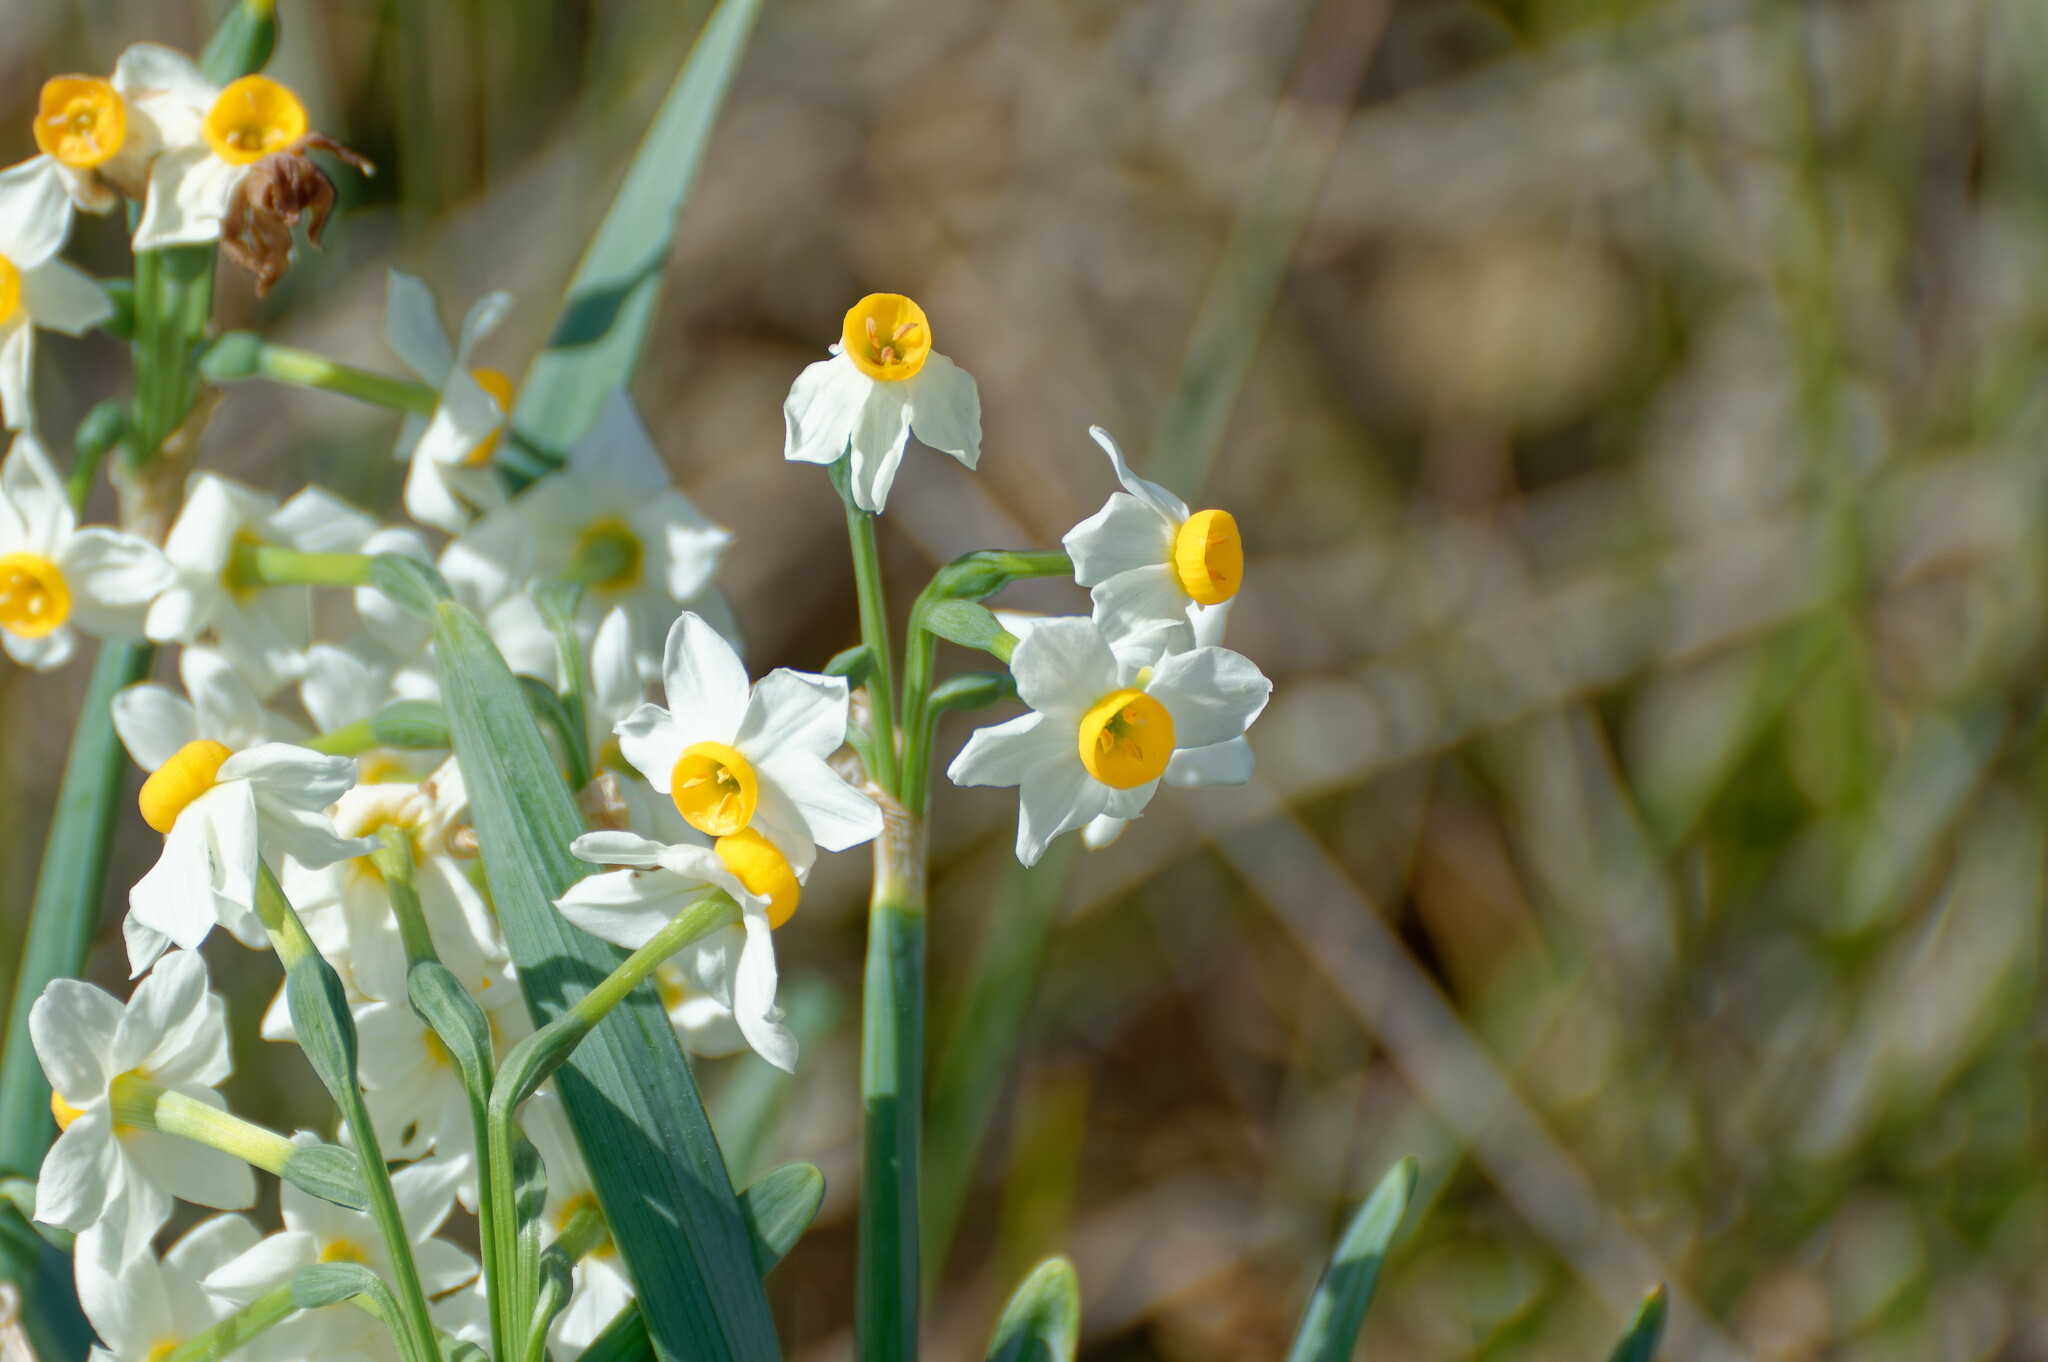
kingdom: Plantae
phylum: Tracheophyta
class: Liliopsida
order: Asparagales
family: Amaryllidaceae
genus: Narcissus
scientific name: Narcissus tazetta
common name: Bunch-flowered daffodil
